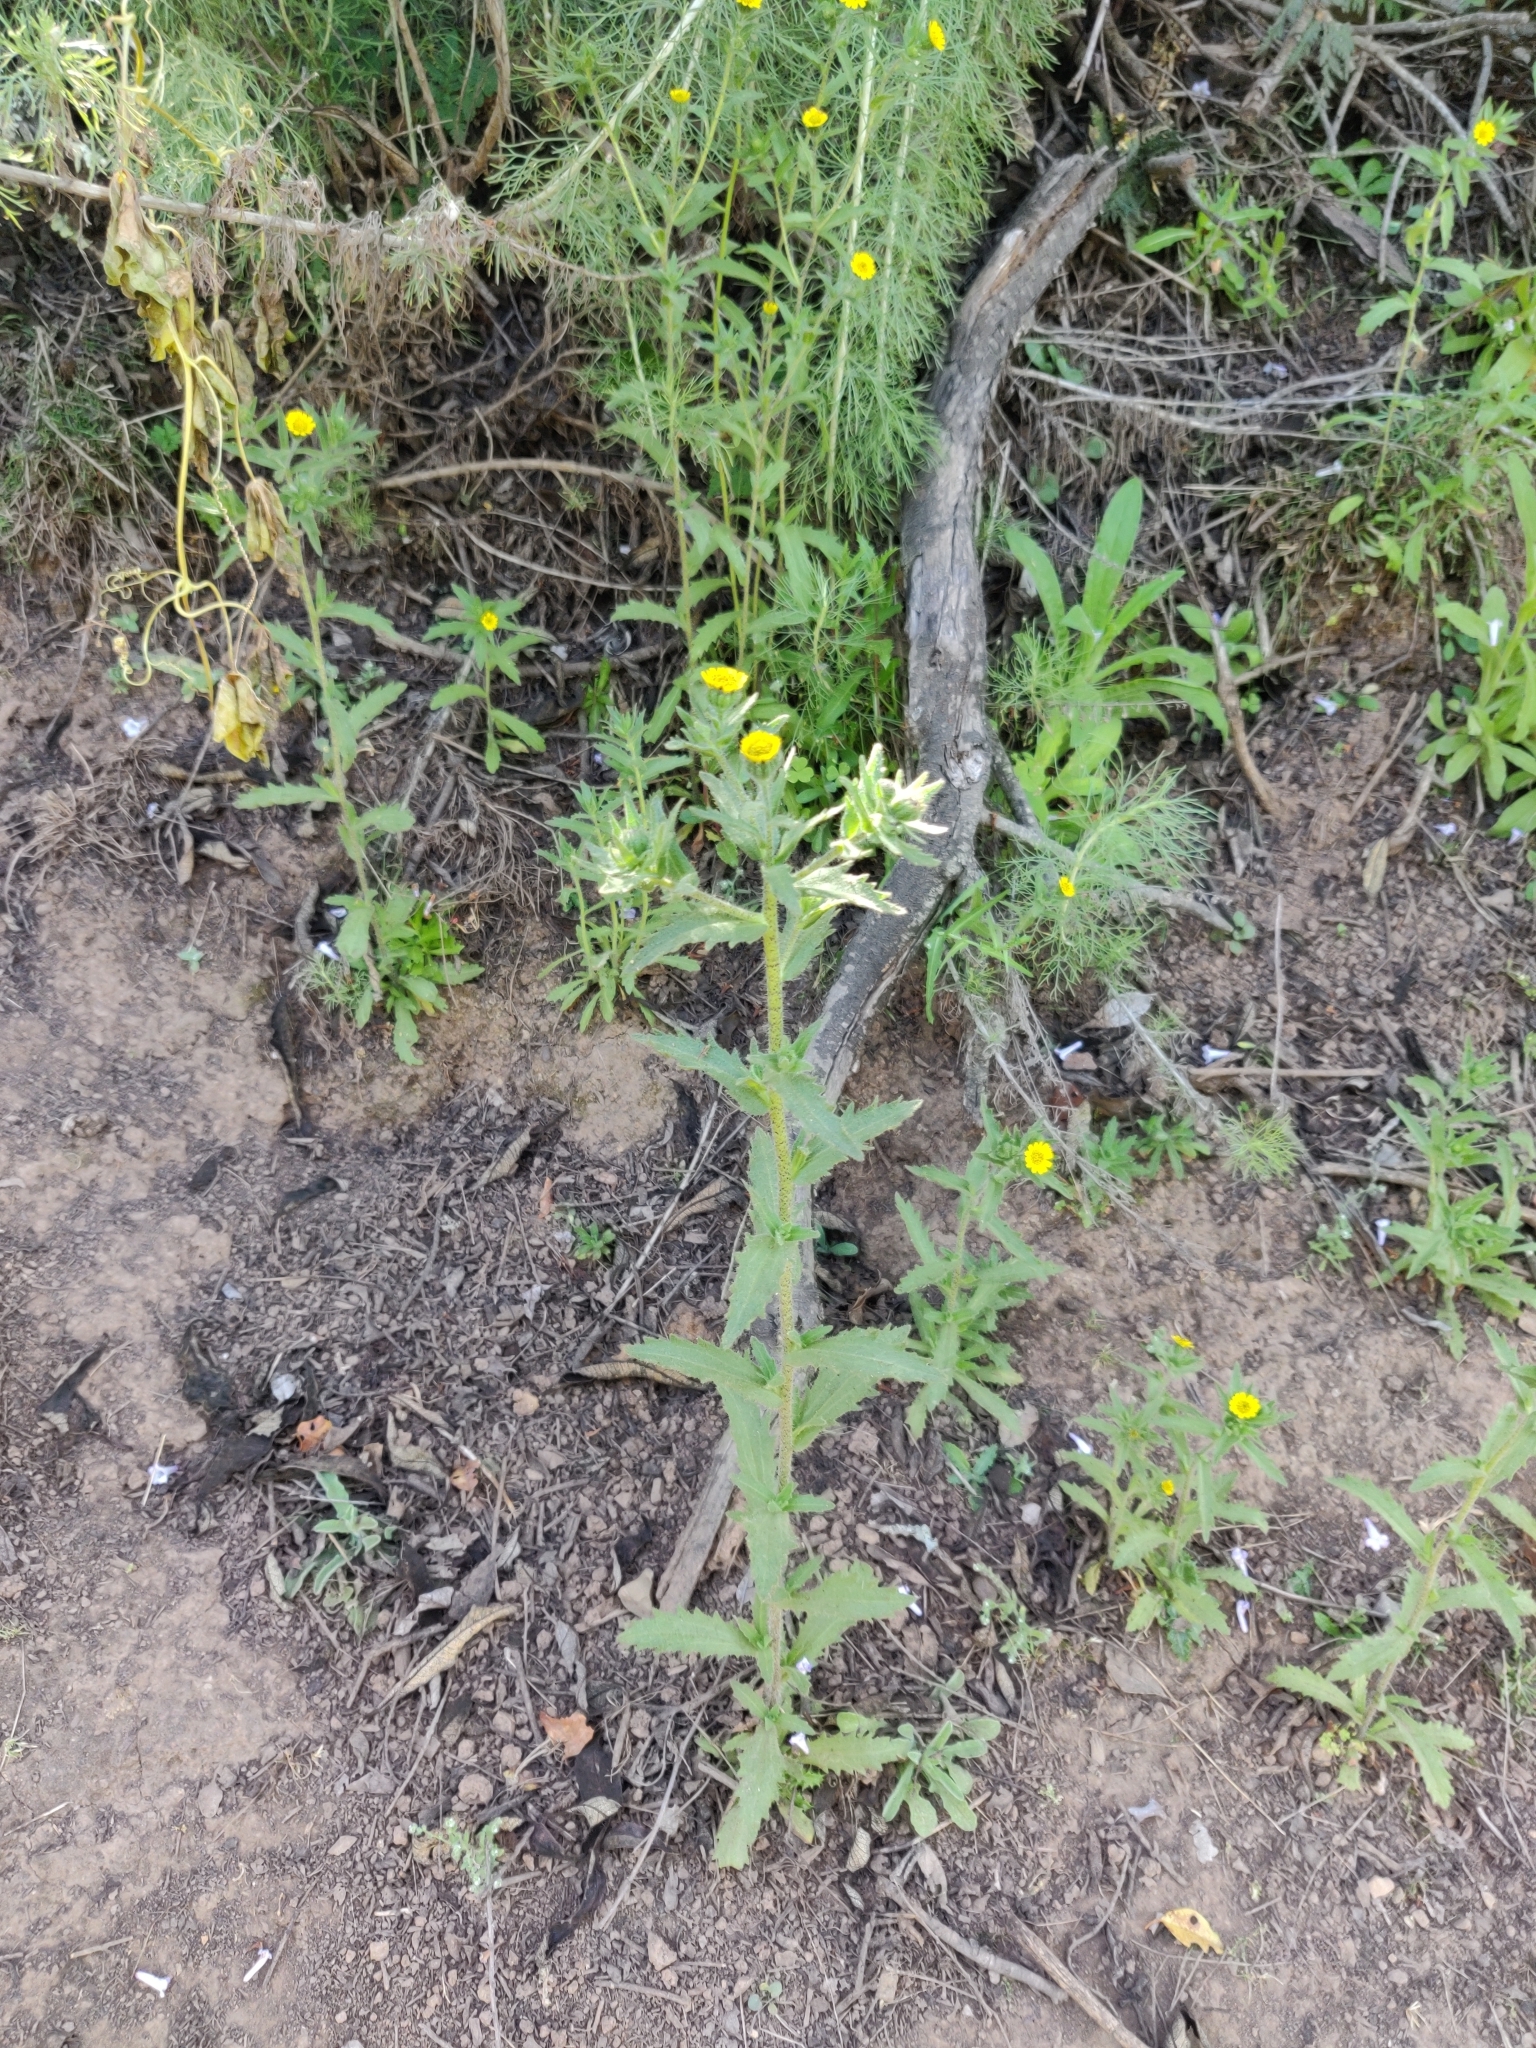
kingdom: Plantae
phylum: Tracheophyta
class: Magnoliopsida
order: Asterales
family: Asteraceae
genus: Layia
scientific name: Layia hieracioides
